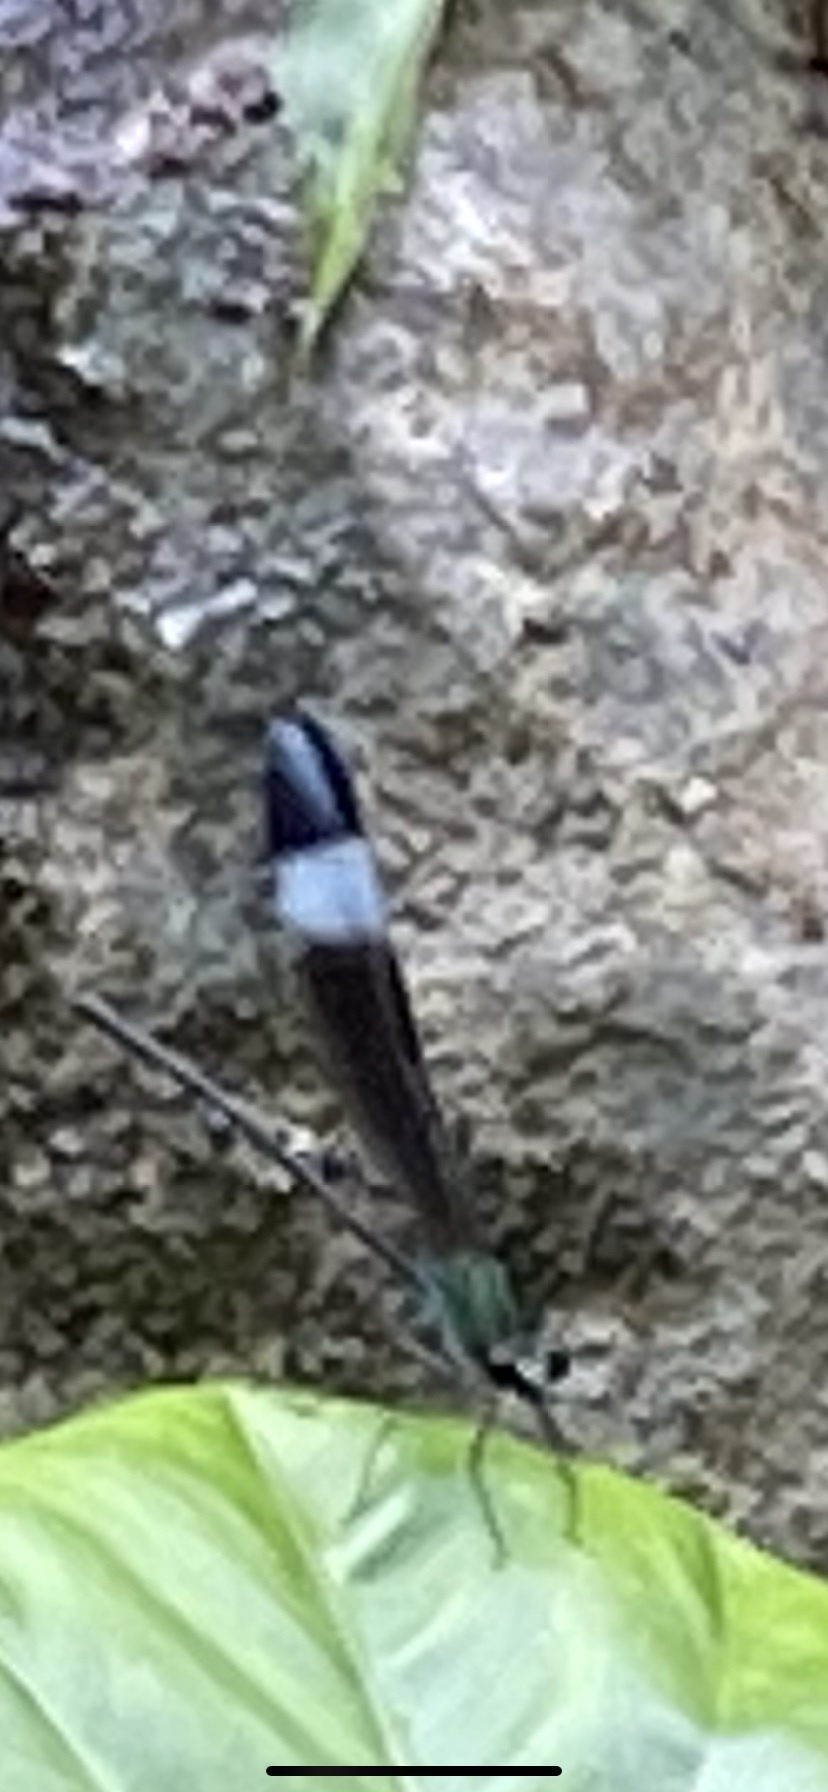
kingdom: Animalia
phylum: Arthropoda
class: Insecta
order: Odonata
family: Calopterygidae
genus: Psolodesmus
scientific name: Psolodesmus mandarinus
